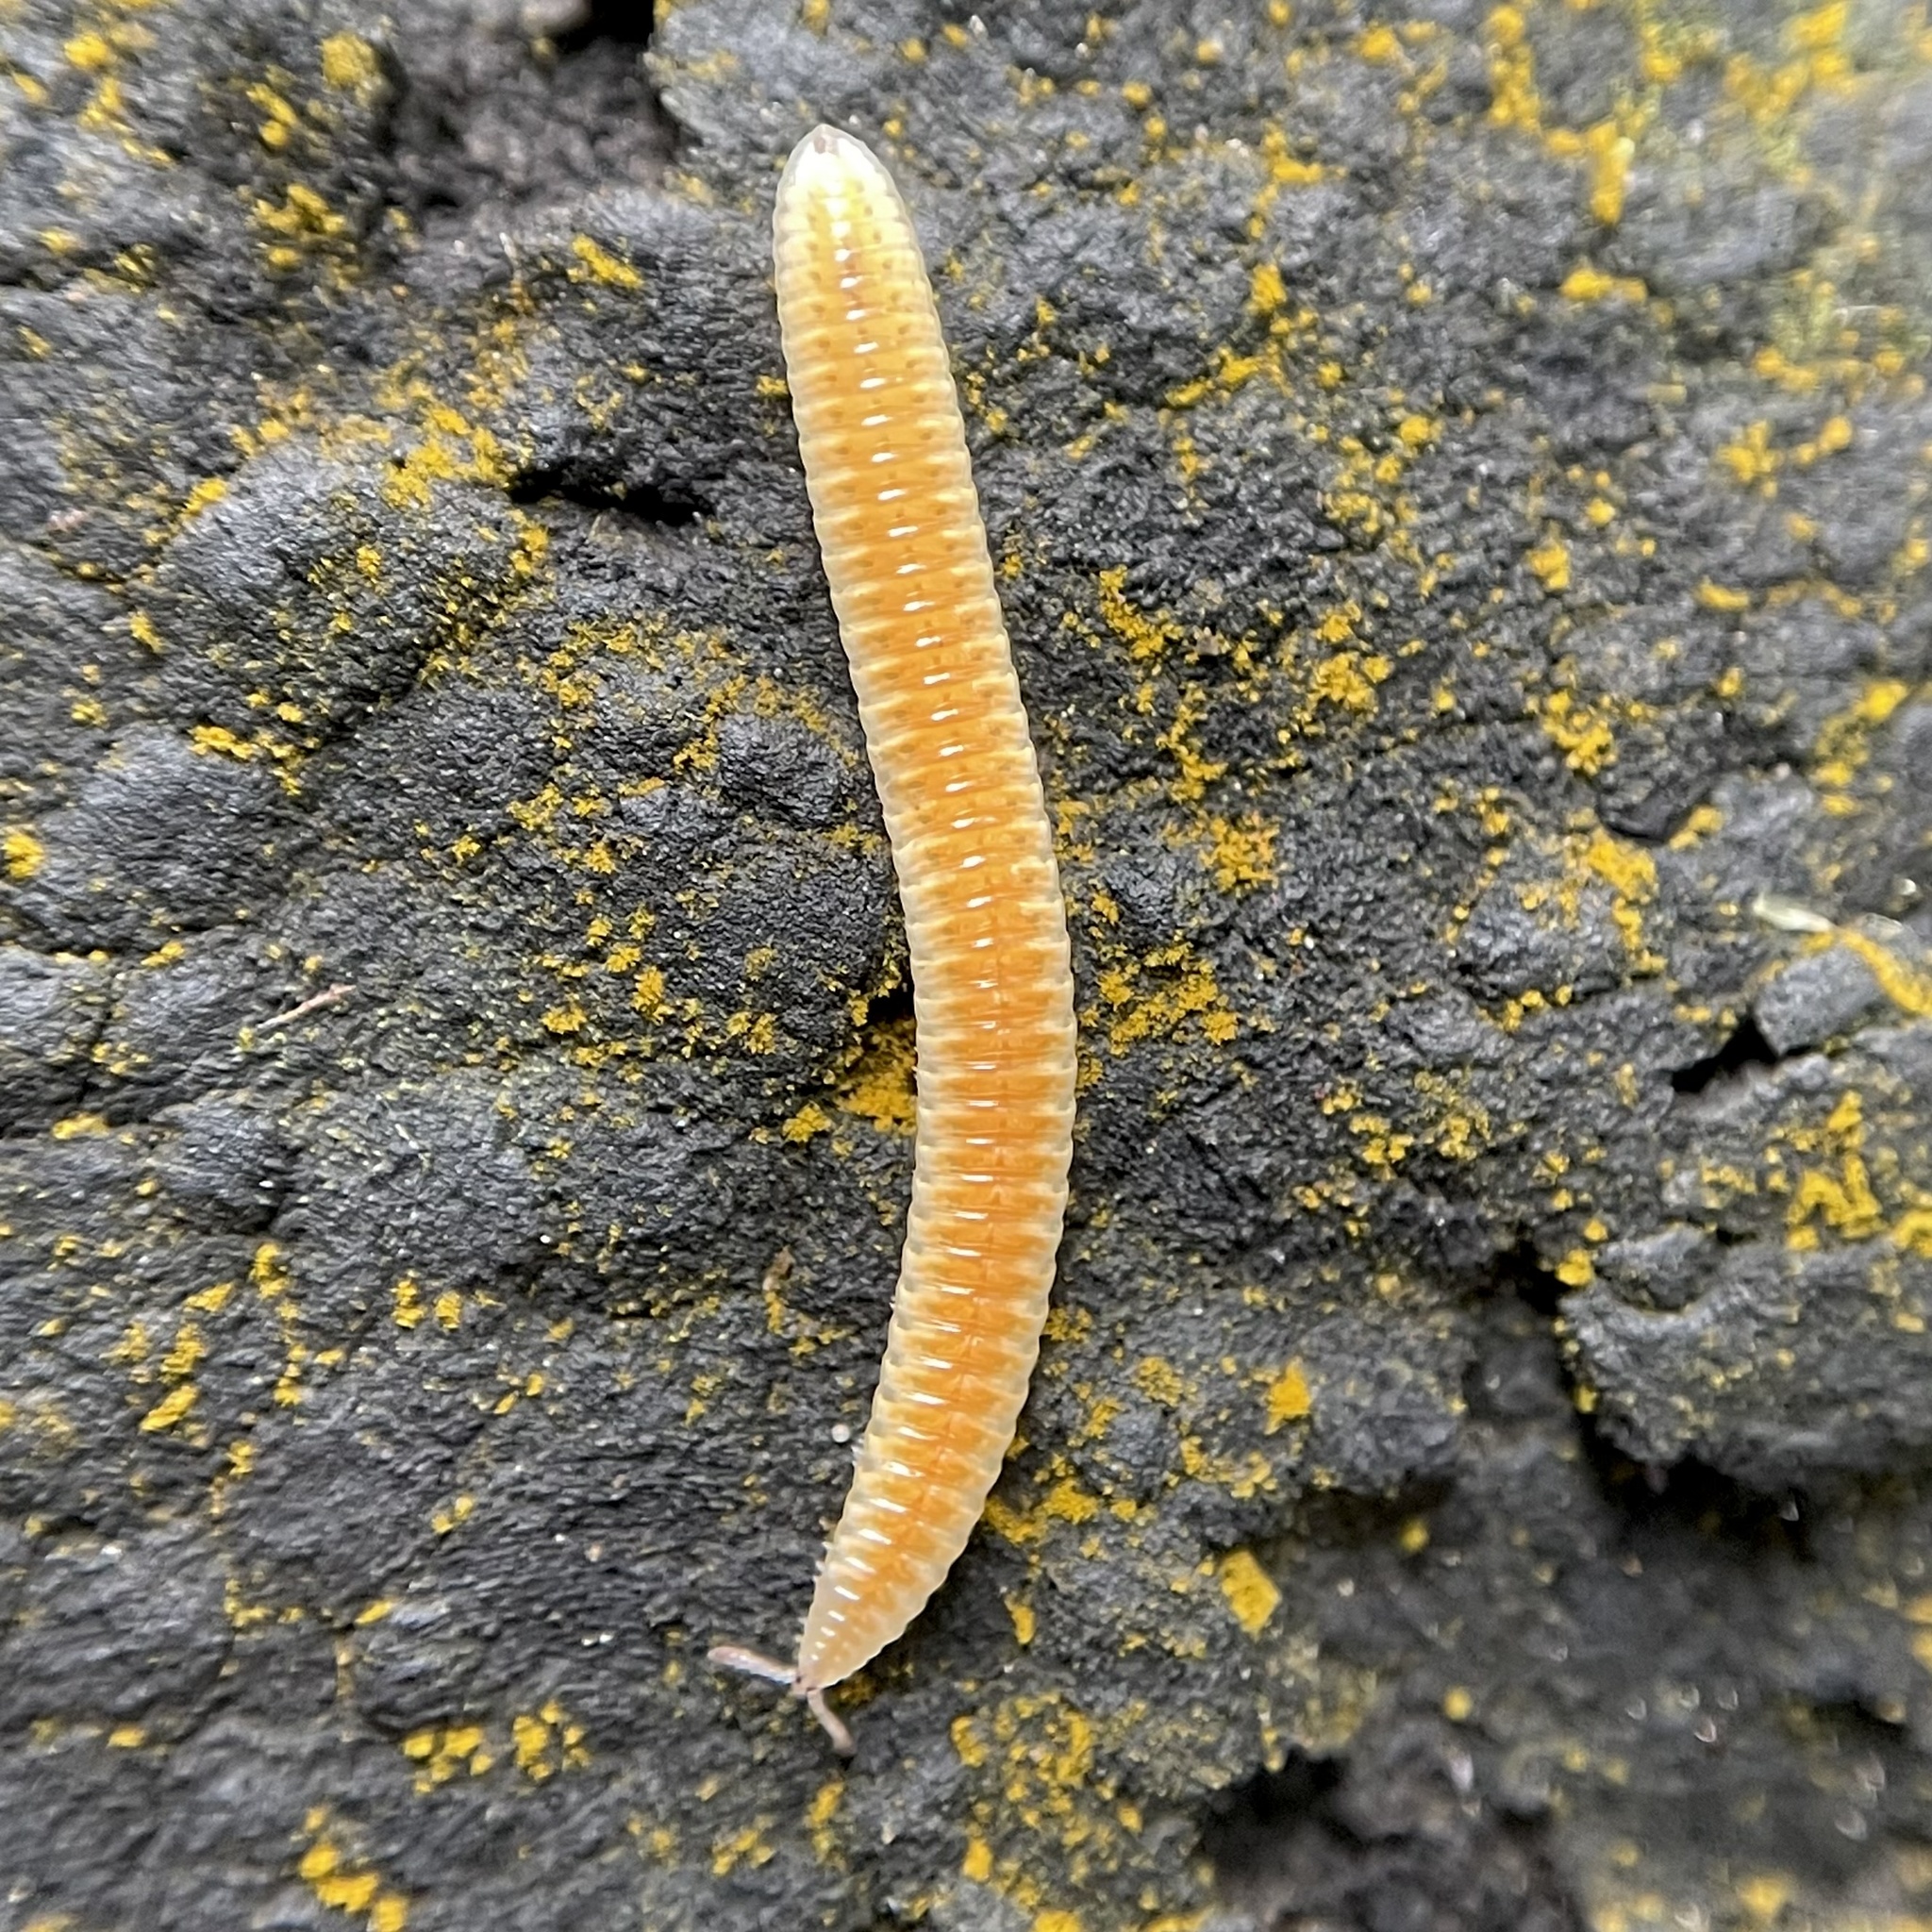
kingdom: Animalia
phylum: Arthropoda
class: Diplopoda
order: Polyzoniida
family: Polyzoniidae
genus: Stenozonium
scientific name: Stenozonium exile
